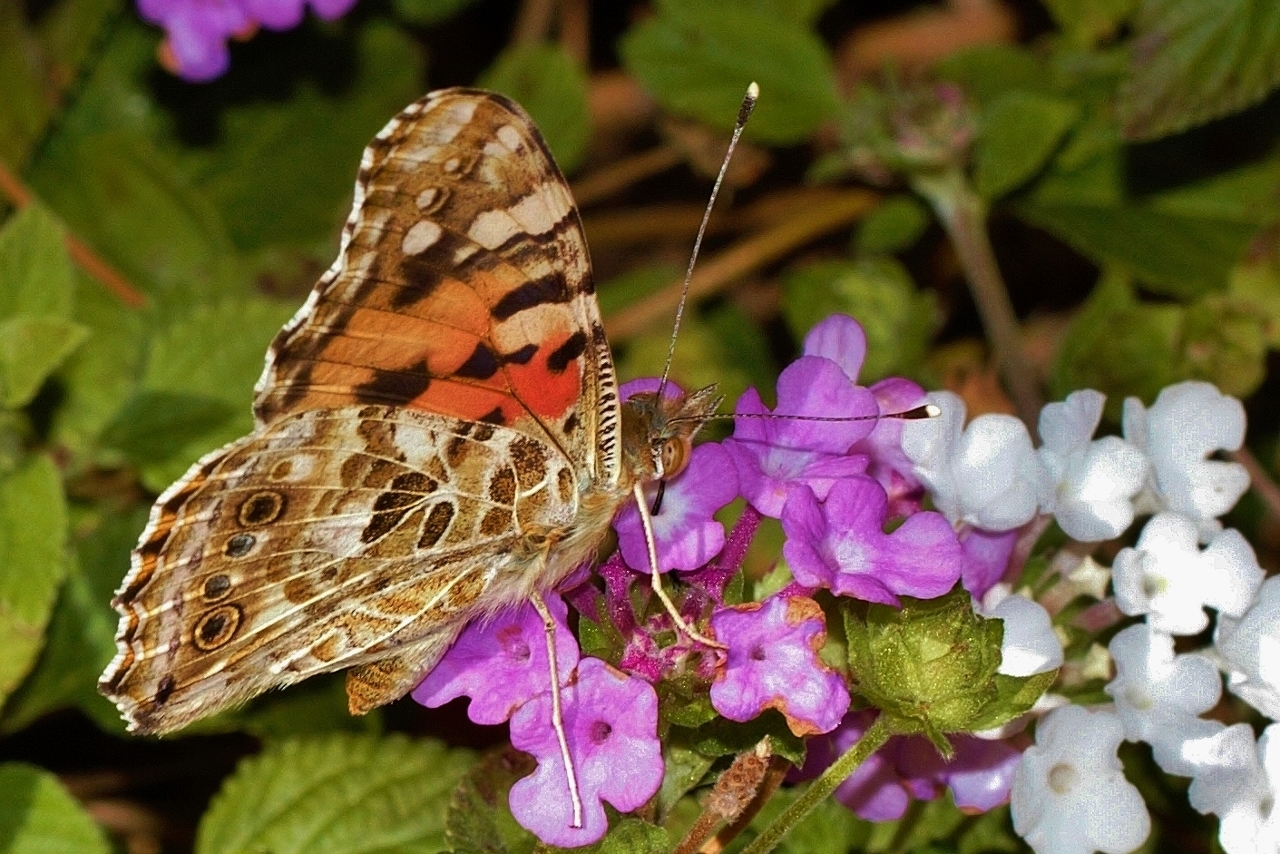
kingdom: Animalia
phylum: Arthropoda
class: Insecta
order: Lepidoptera
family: Nymphalidae
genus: Vanessa
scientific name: Vanessa cardui
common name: Painted lady
